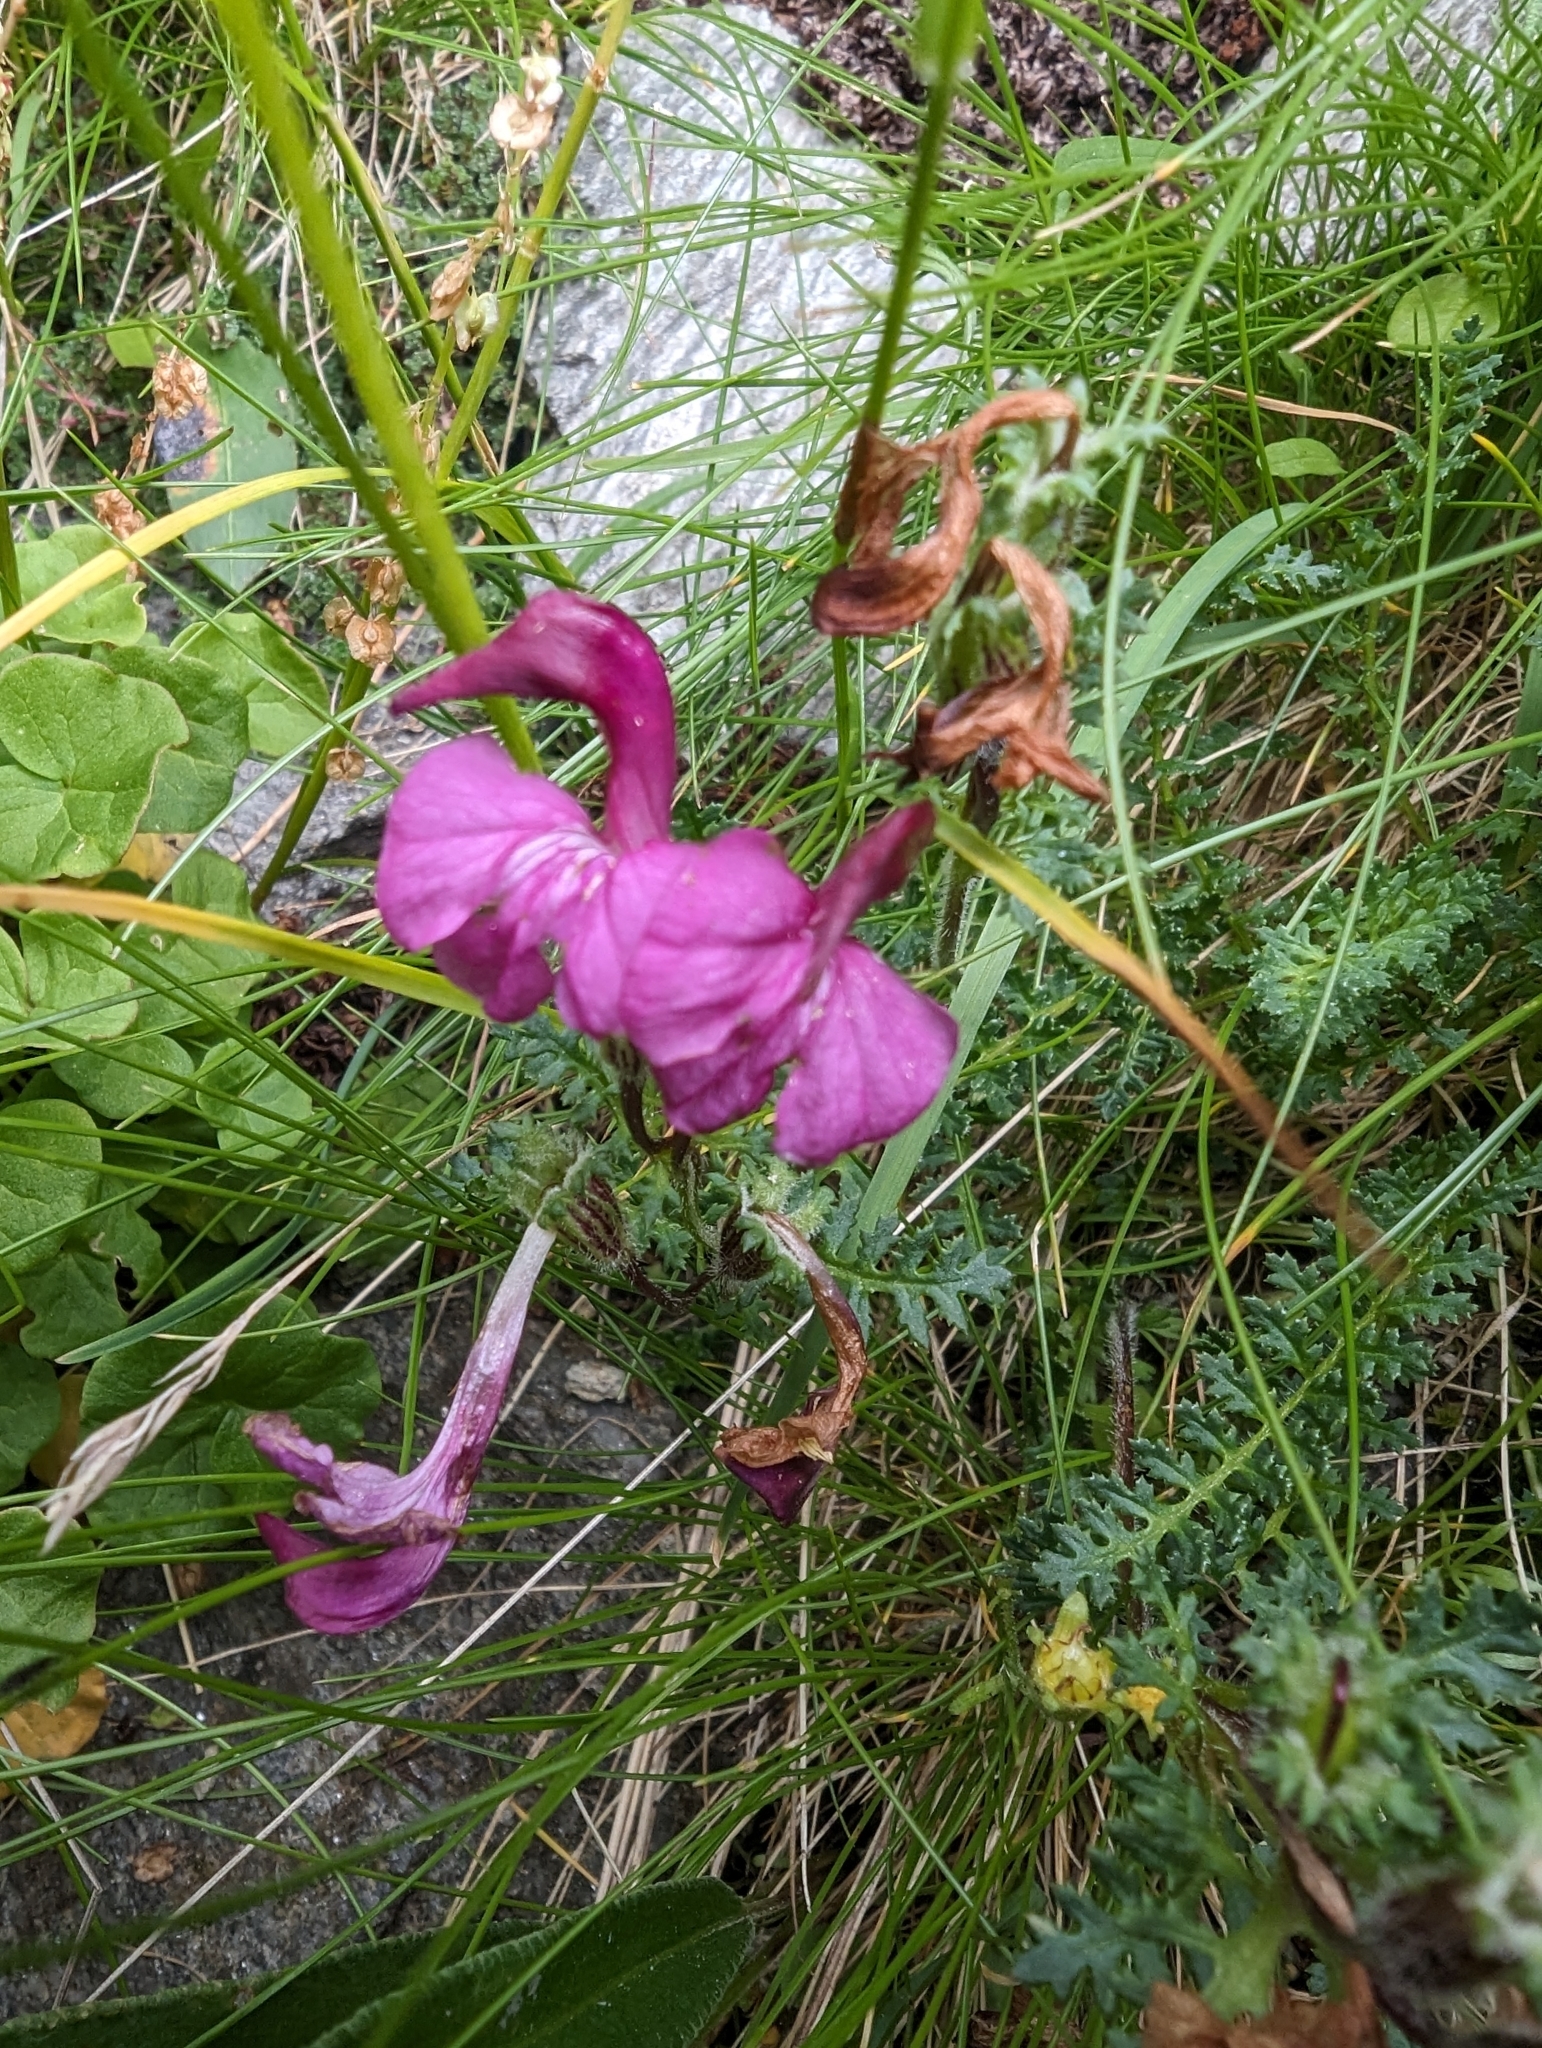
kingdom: Plantae
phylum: Tracheophyta
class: Magnoliopsida
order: Lamiales
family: Orobanchaceae
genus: Pedicularis
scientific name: Pedicularis kerneri
